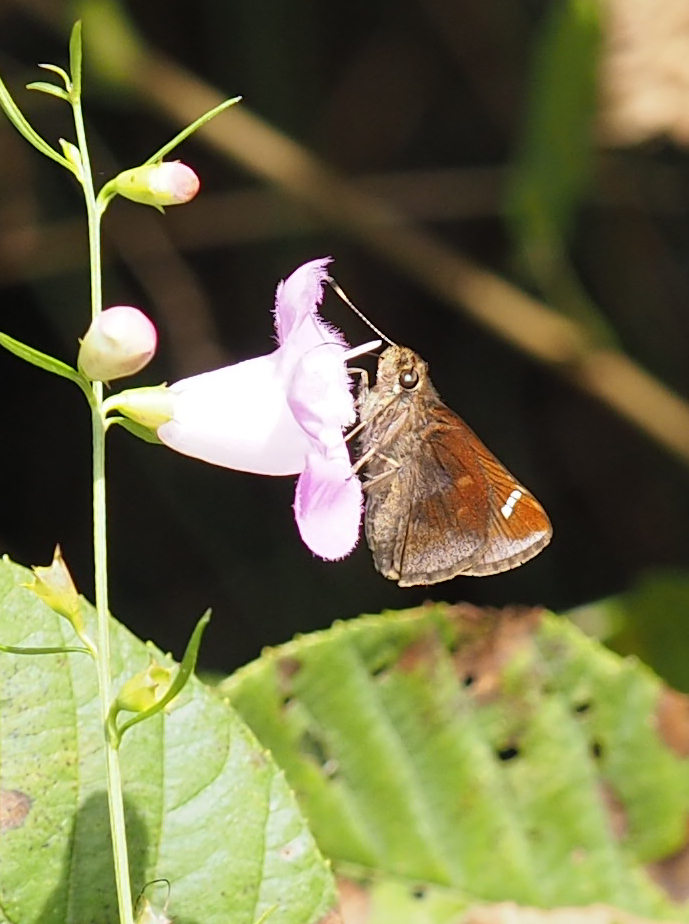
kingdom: Animalia
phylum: Arthropoda
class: Insecta
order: Lepidoptera
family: Hesperiidae
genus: Lerema
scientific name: Lerema accius
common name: Clouded skipper
